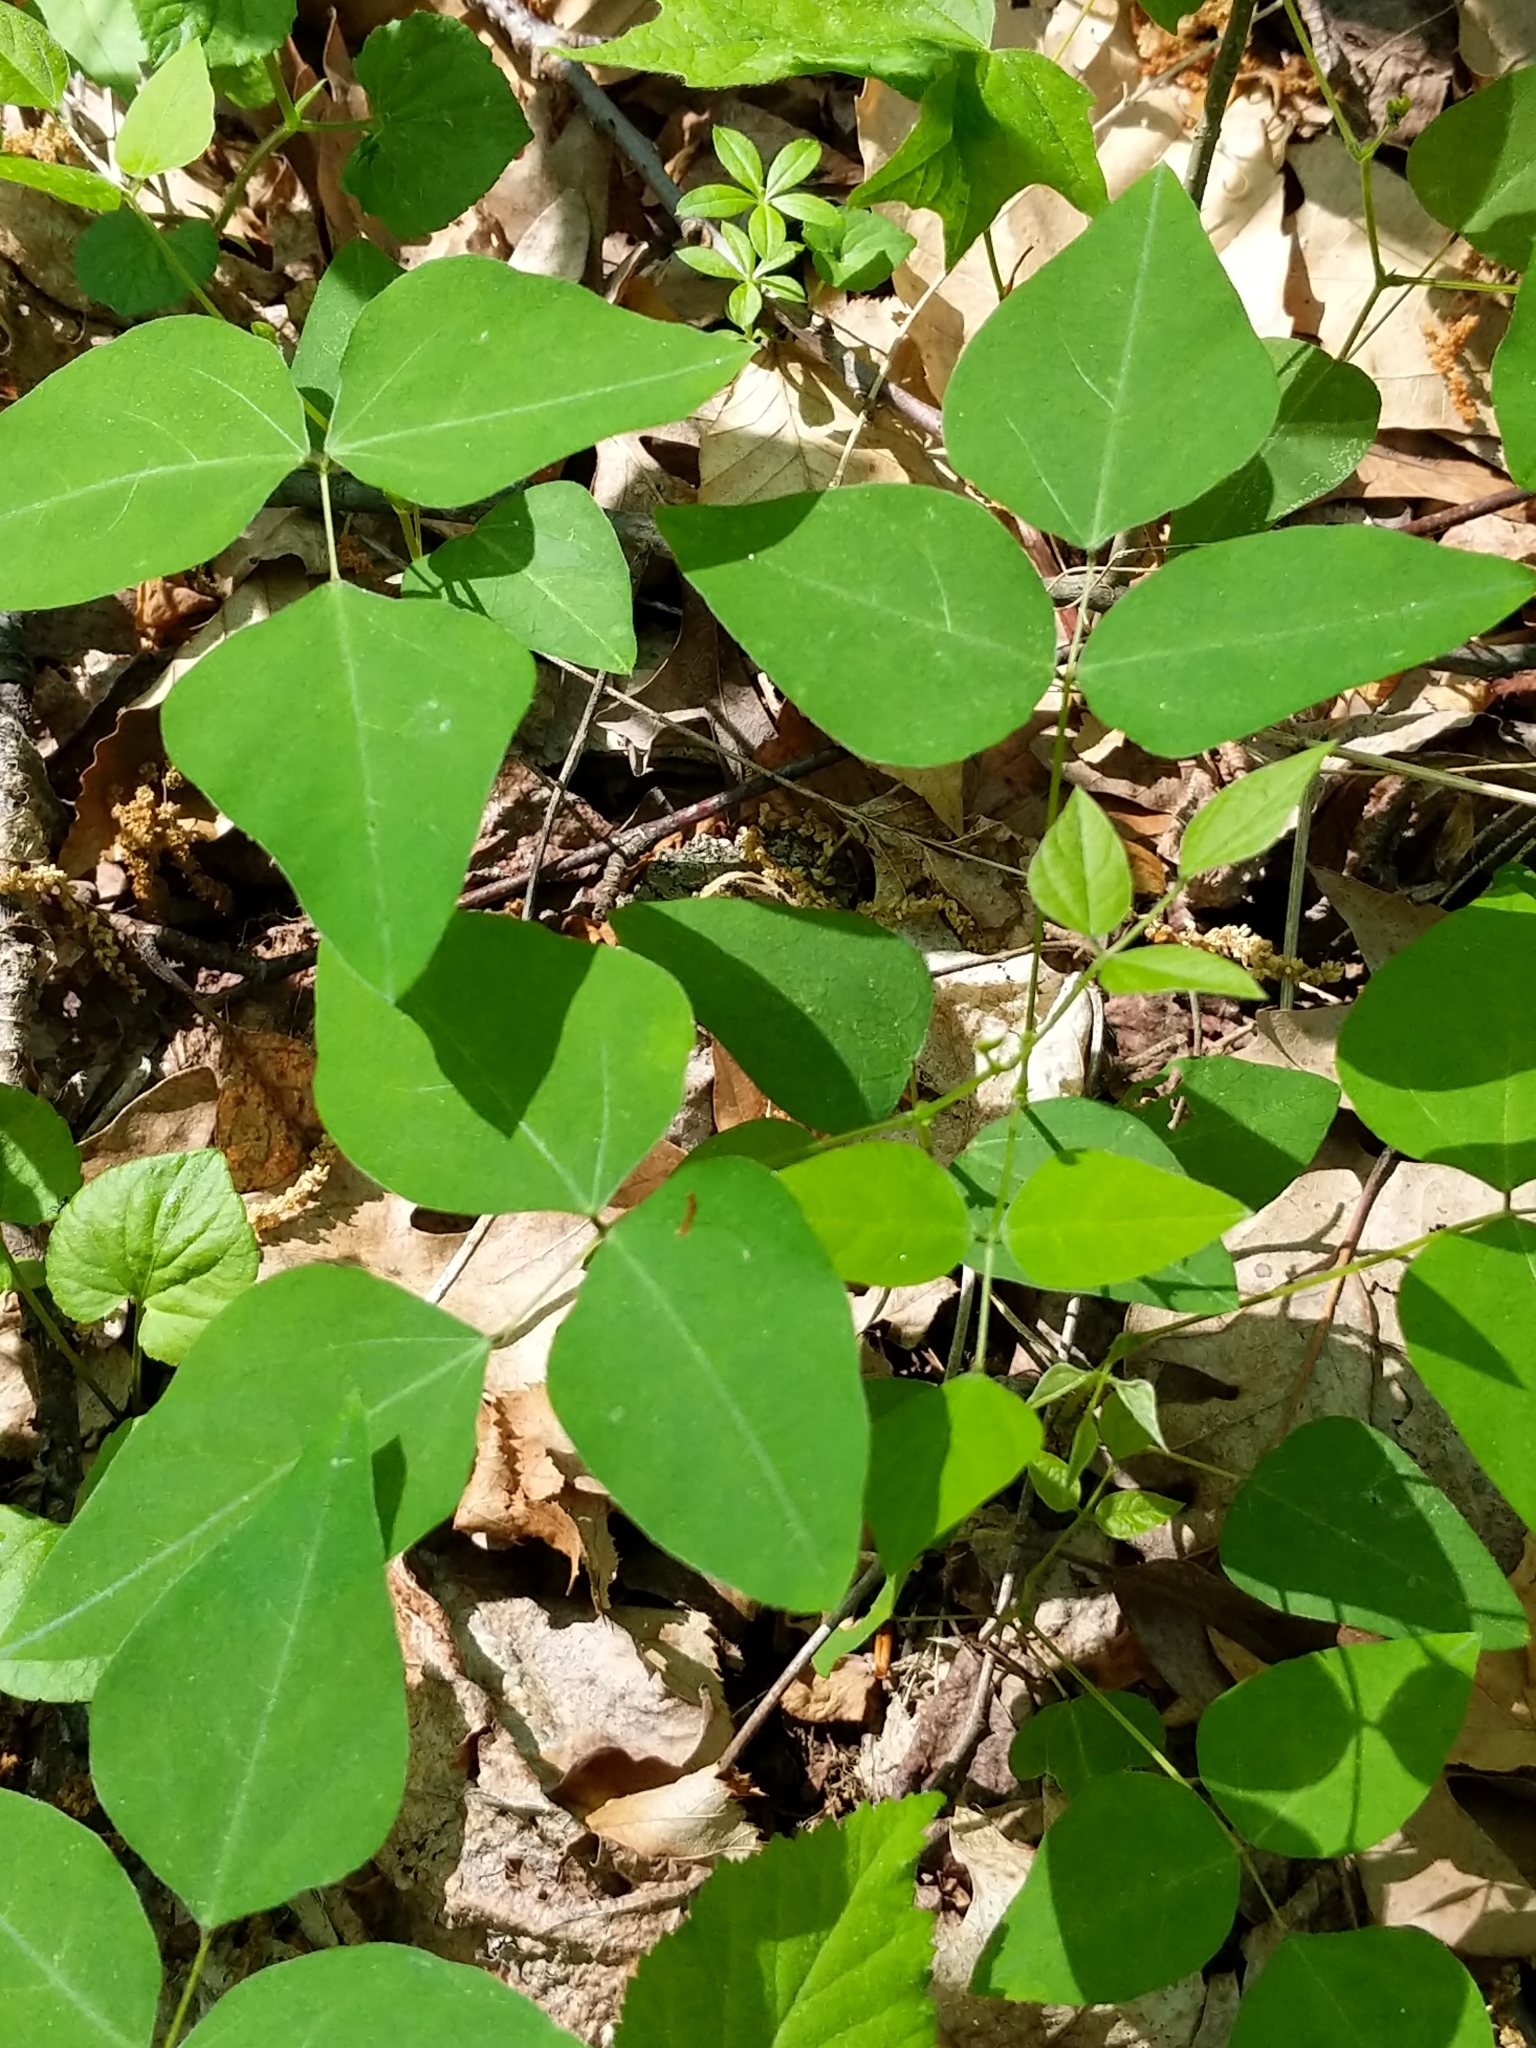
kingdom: Plantae
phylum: Tracheophyta
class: Magnoliopsida
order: Fabales
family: Fabaceae
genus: Amphicarpaea
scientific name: Amphicarpaea bracteata
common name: American hog peanut
